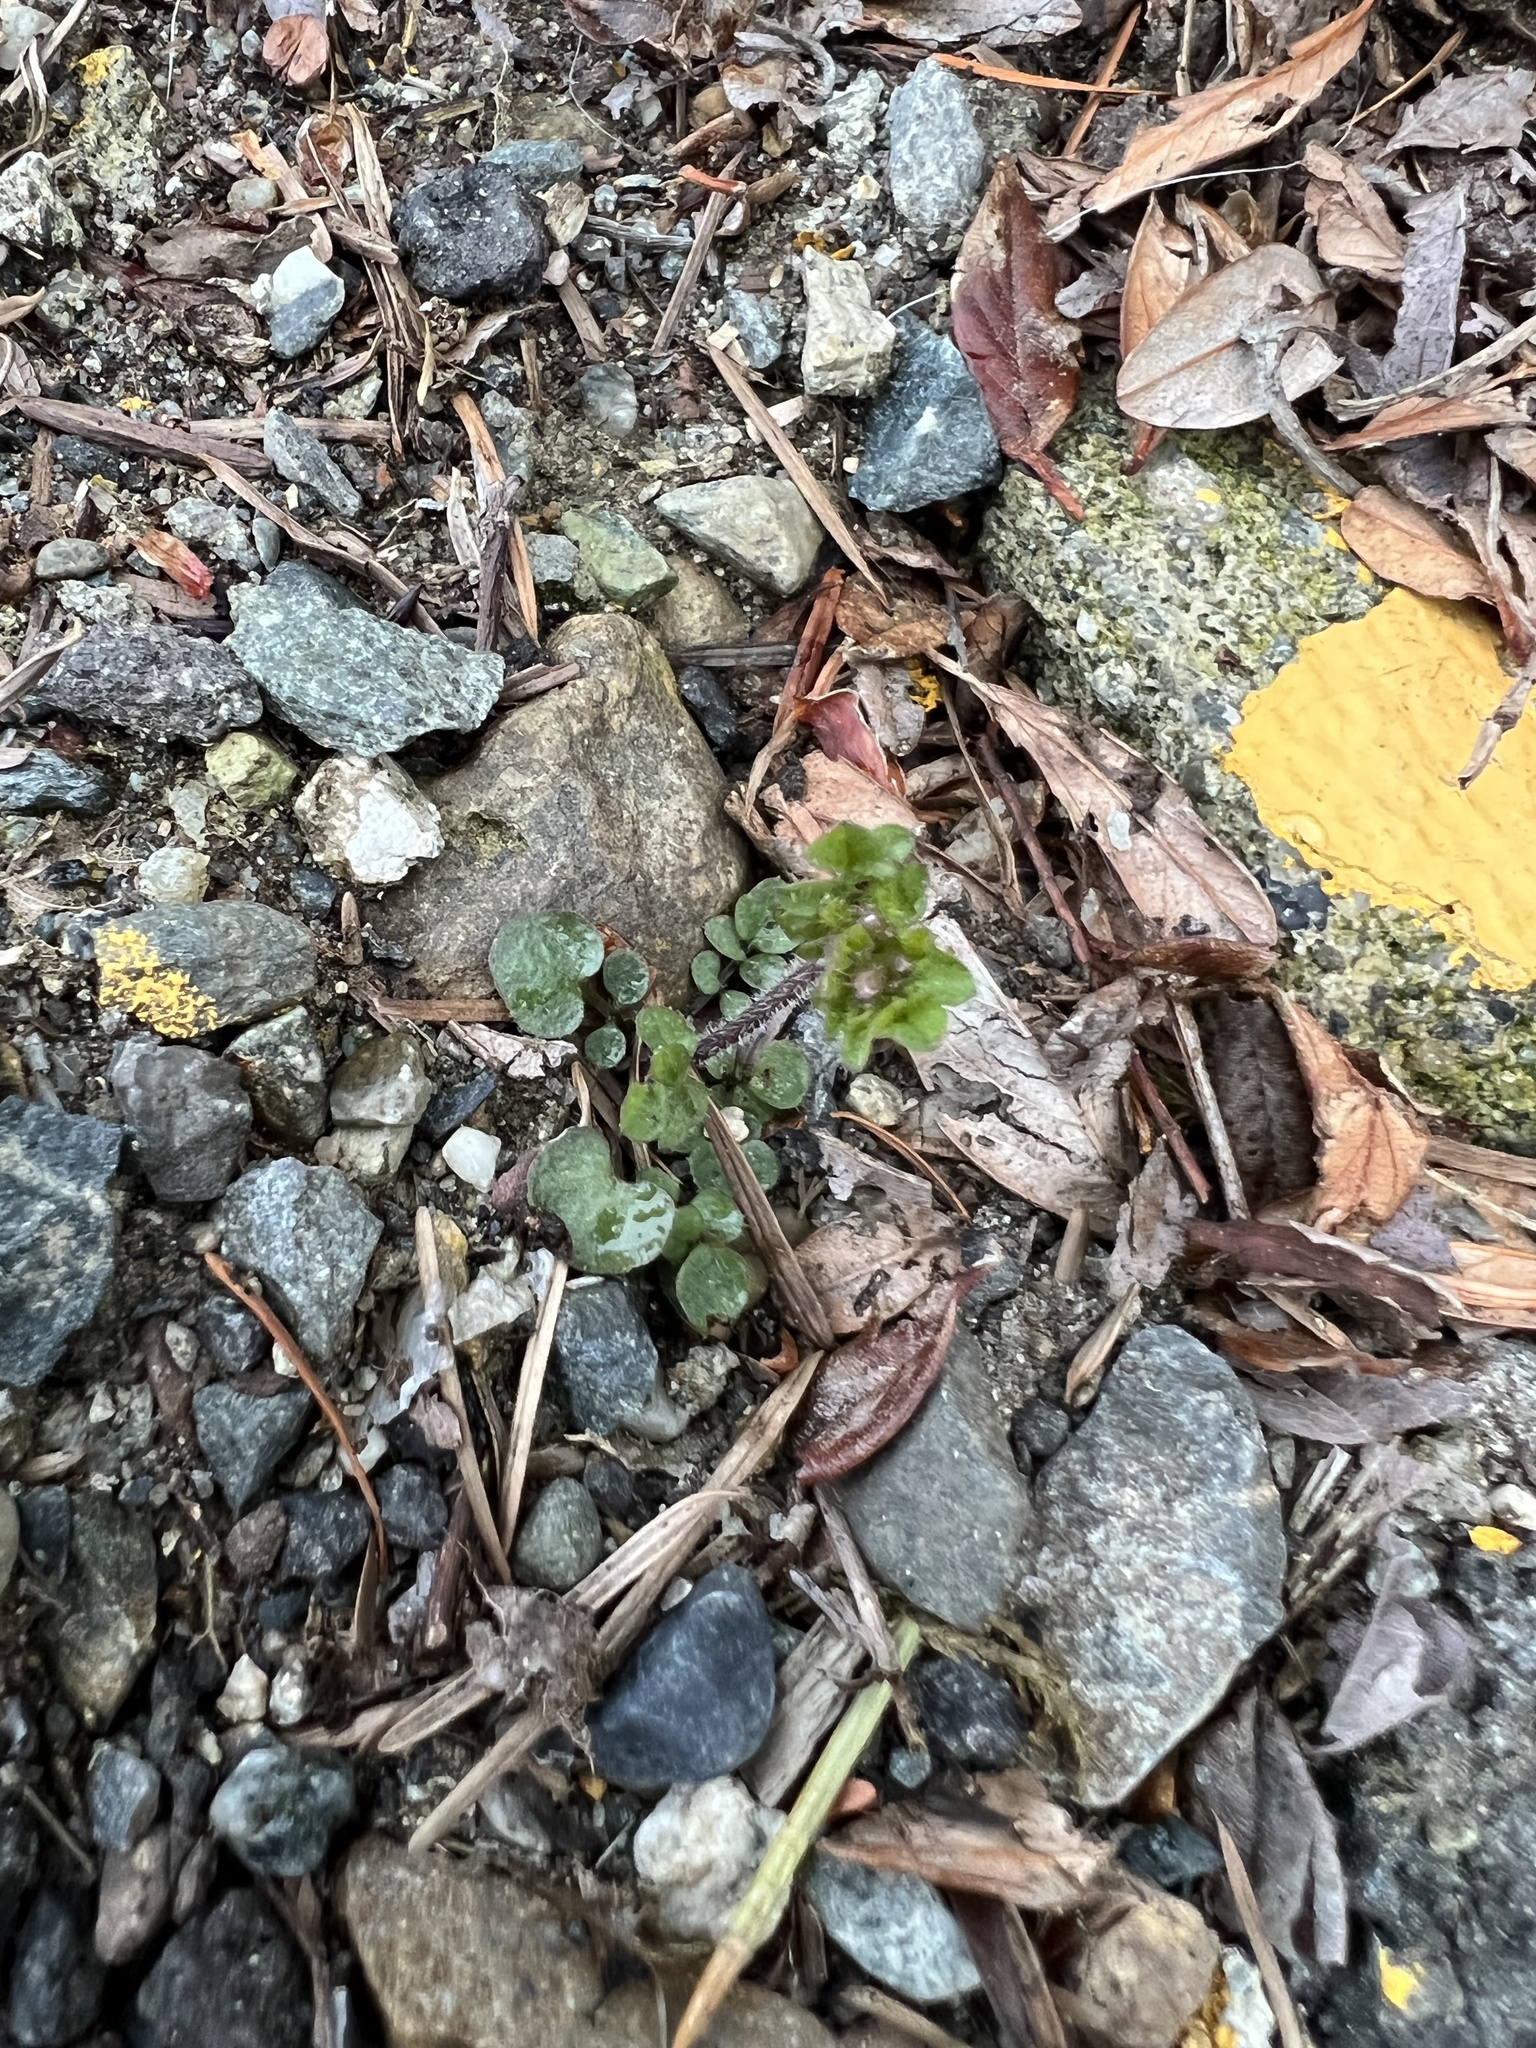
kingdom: Plantae
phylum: Tracheophyta
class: Magnoliopsida
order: Brassicales
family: Brassicaceae
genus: Cardamine
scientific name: Cardamine hirsuta
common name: Hairy bittercress
